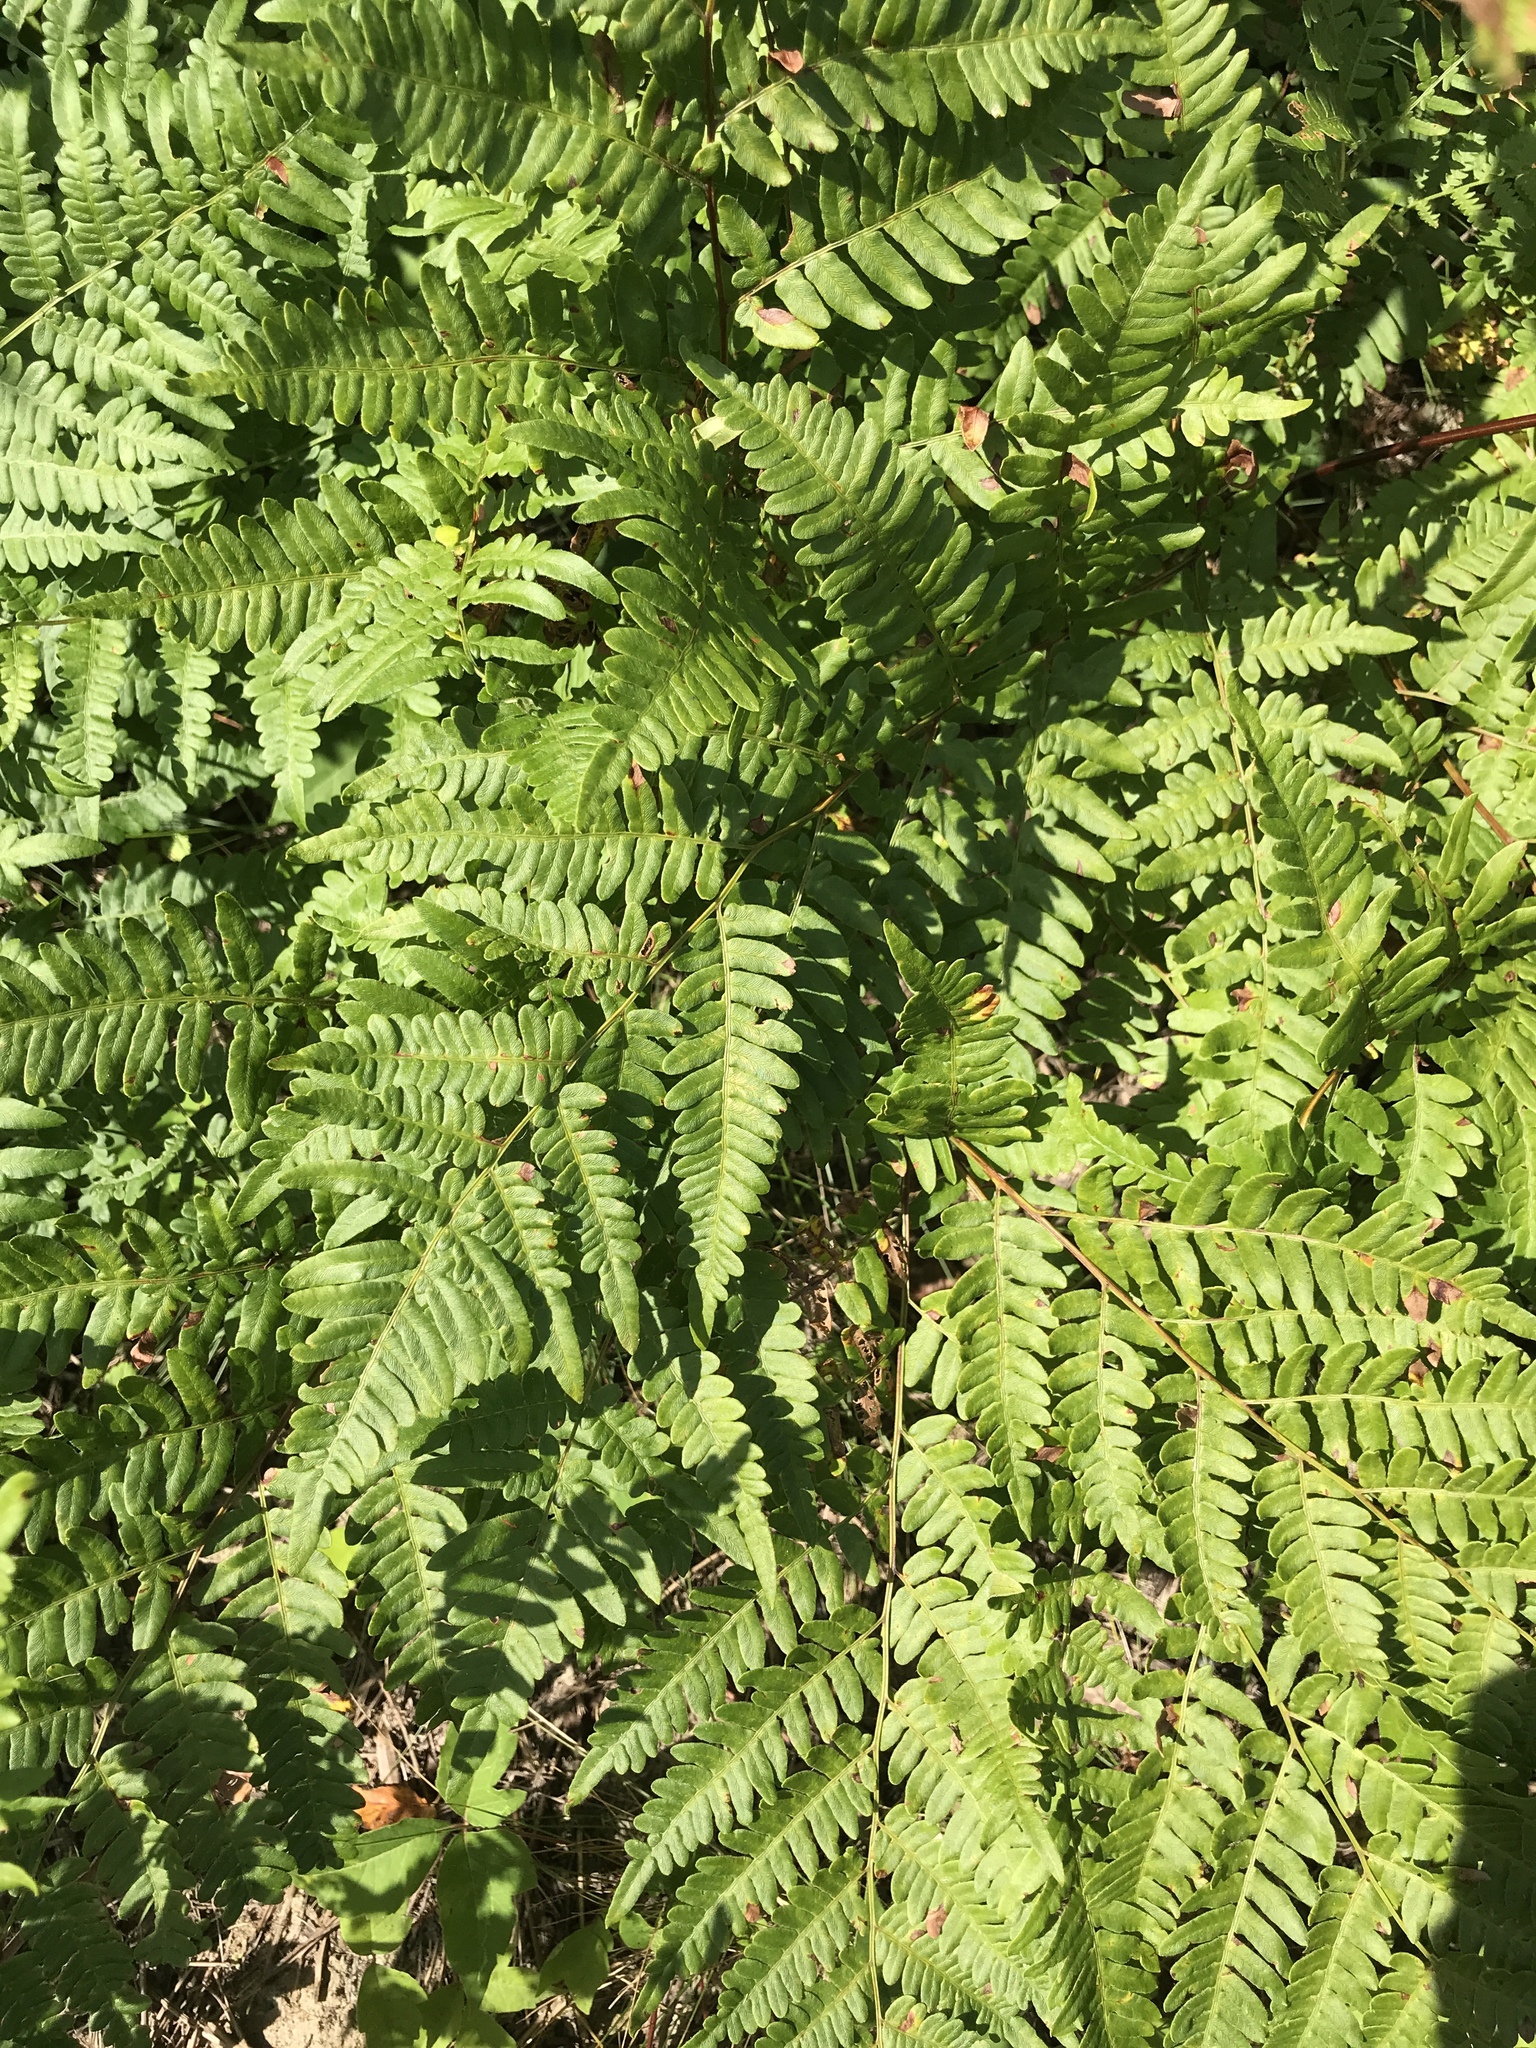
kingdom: Plantae
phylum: Tracheophyta
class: Polypodiopsida
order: Polypodiales
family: Dennstaedtiaceae
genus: Pteridium
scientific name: Pteridium aquilinum
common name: Bracken
